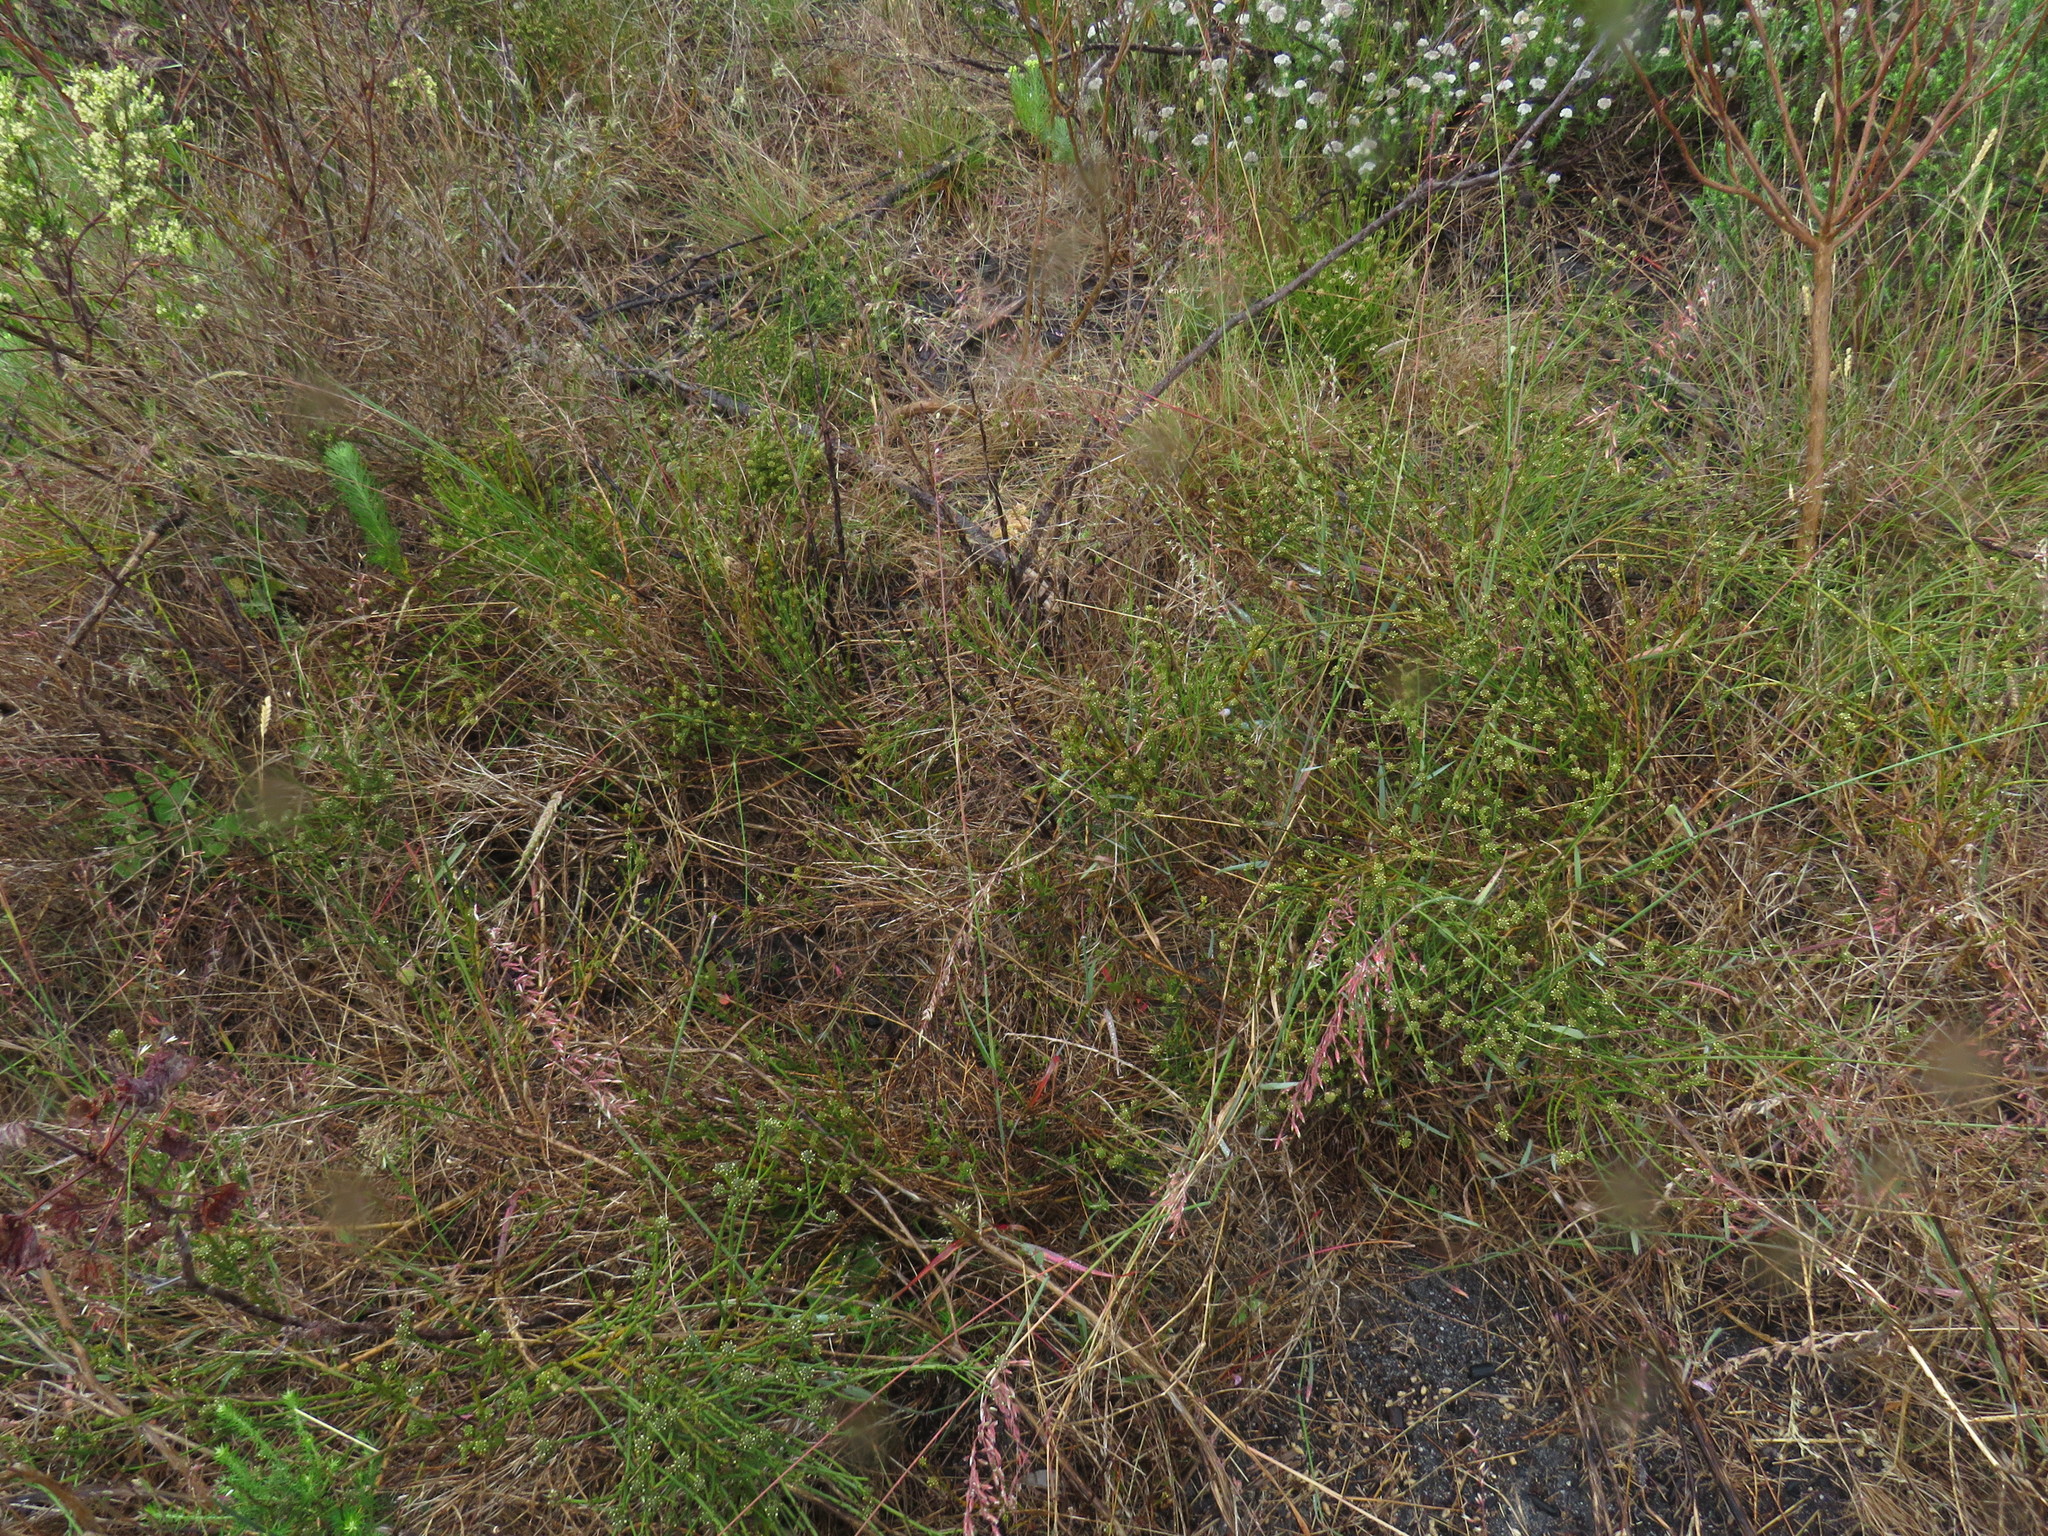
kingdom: Plantae
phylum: Tracheophyta
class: Magnoliopsida
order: Santalales
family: Thesiaceae
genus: Thesium
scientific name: Thesium aggregatum
